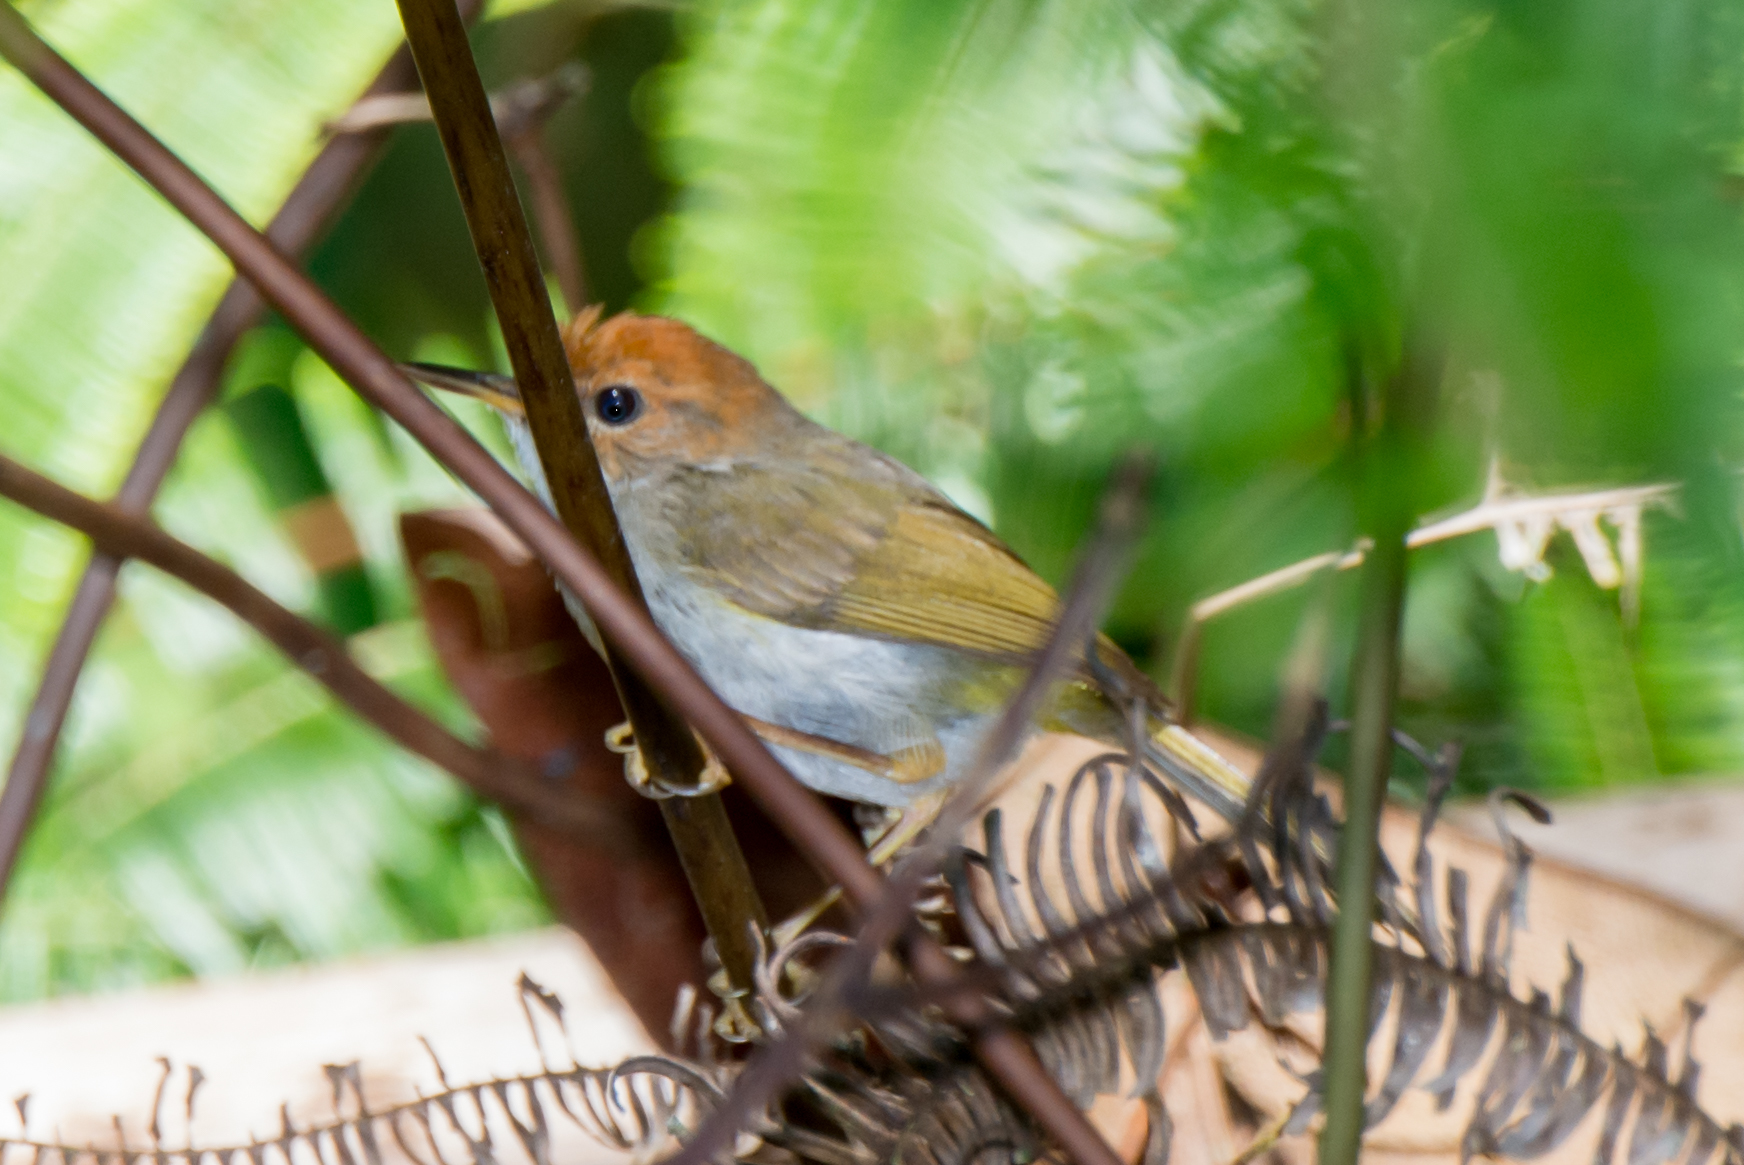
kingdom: Animalia
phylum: Chordata
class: Aves
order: Passeriformes
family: Cettiidae
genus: Phyllergates
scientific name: Phyllergates cuculatus
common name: Mountain tailorbird
